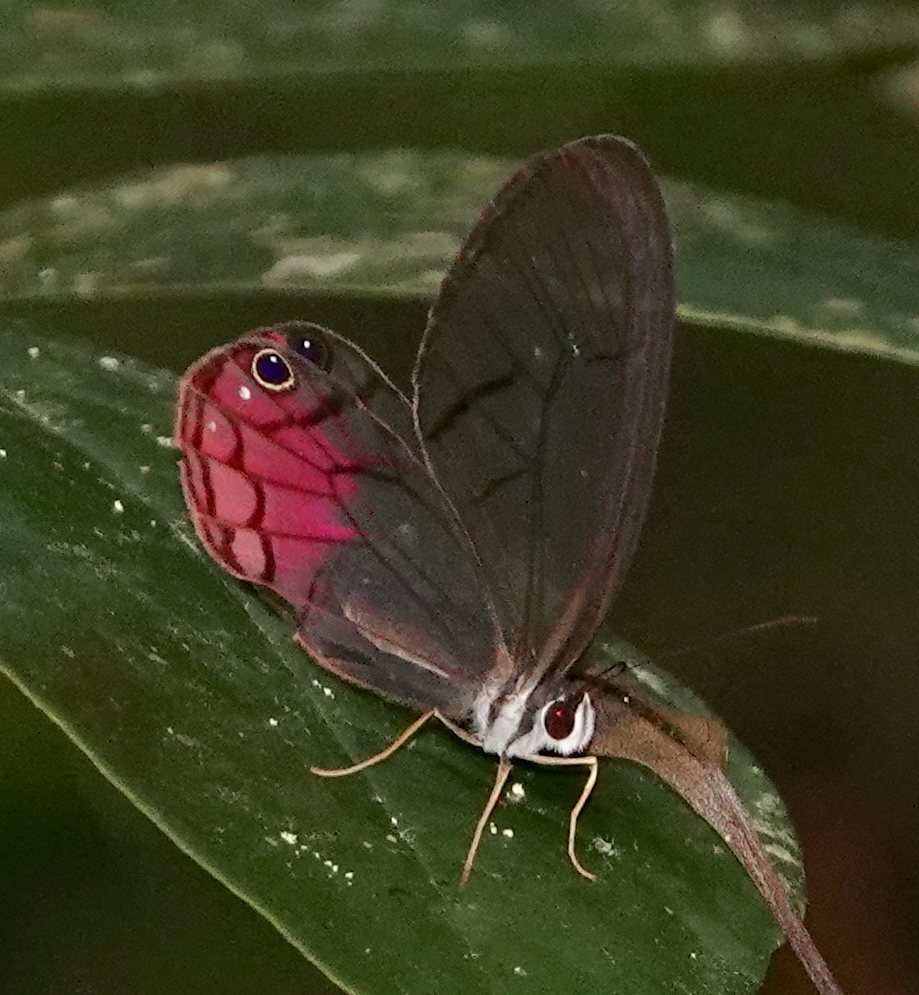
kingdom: Animalia
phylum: Arthropoda
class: Insecta
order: Lepidoptera
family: Nymphalidae
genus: Cithaerias
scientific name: Cithaerias cliftoni
